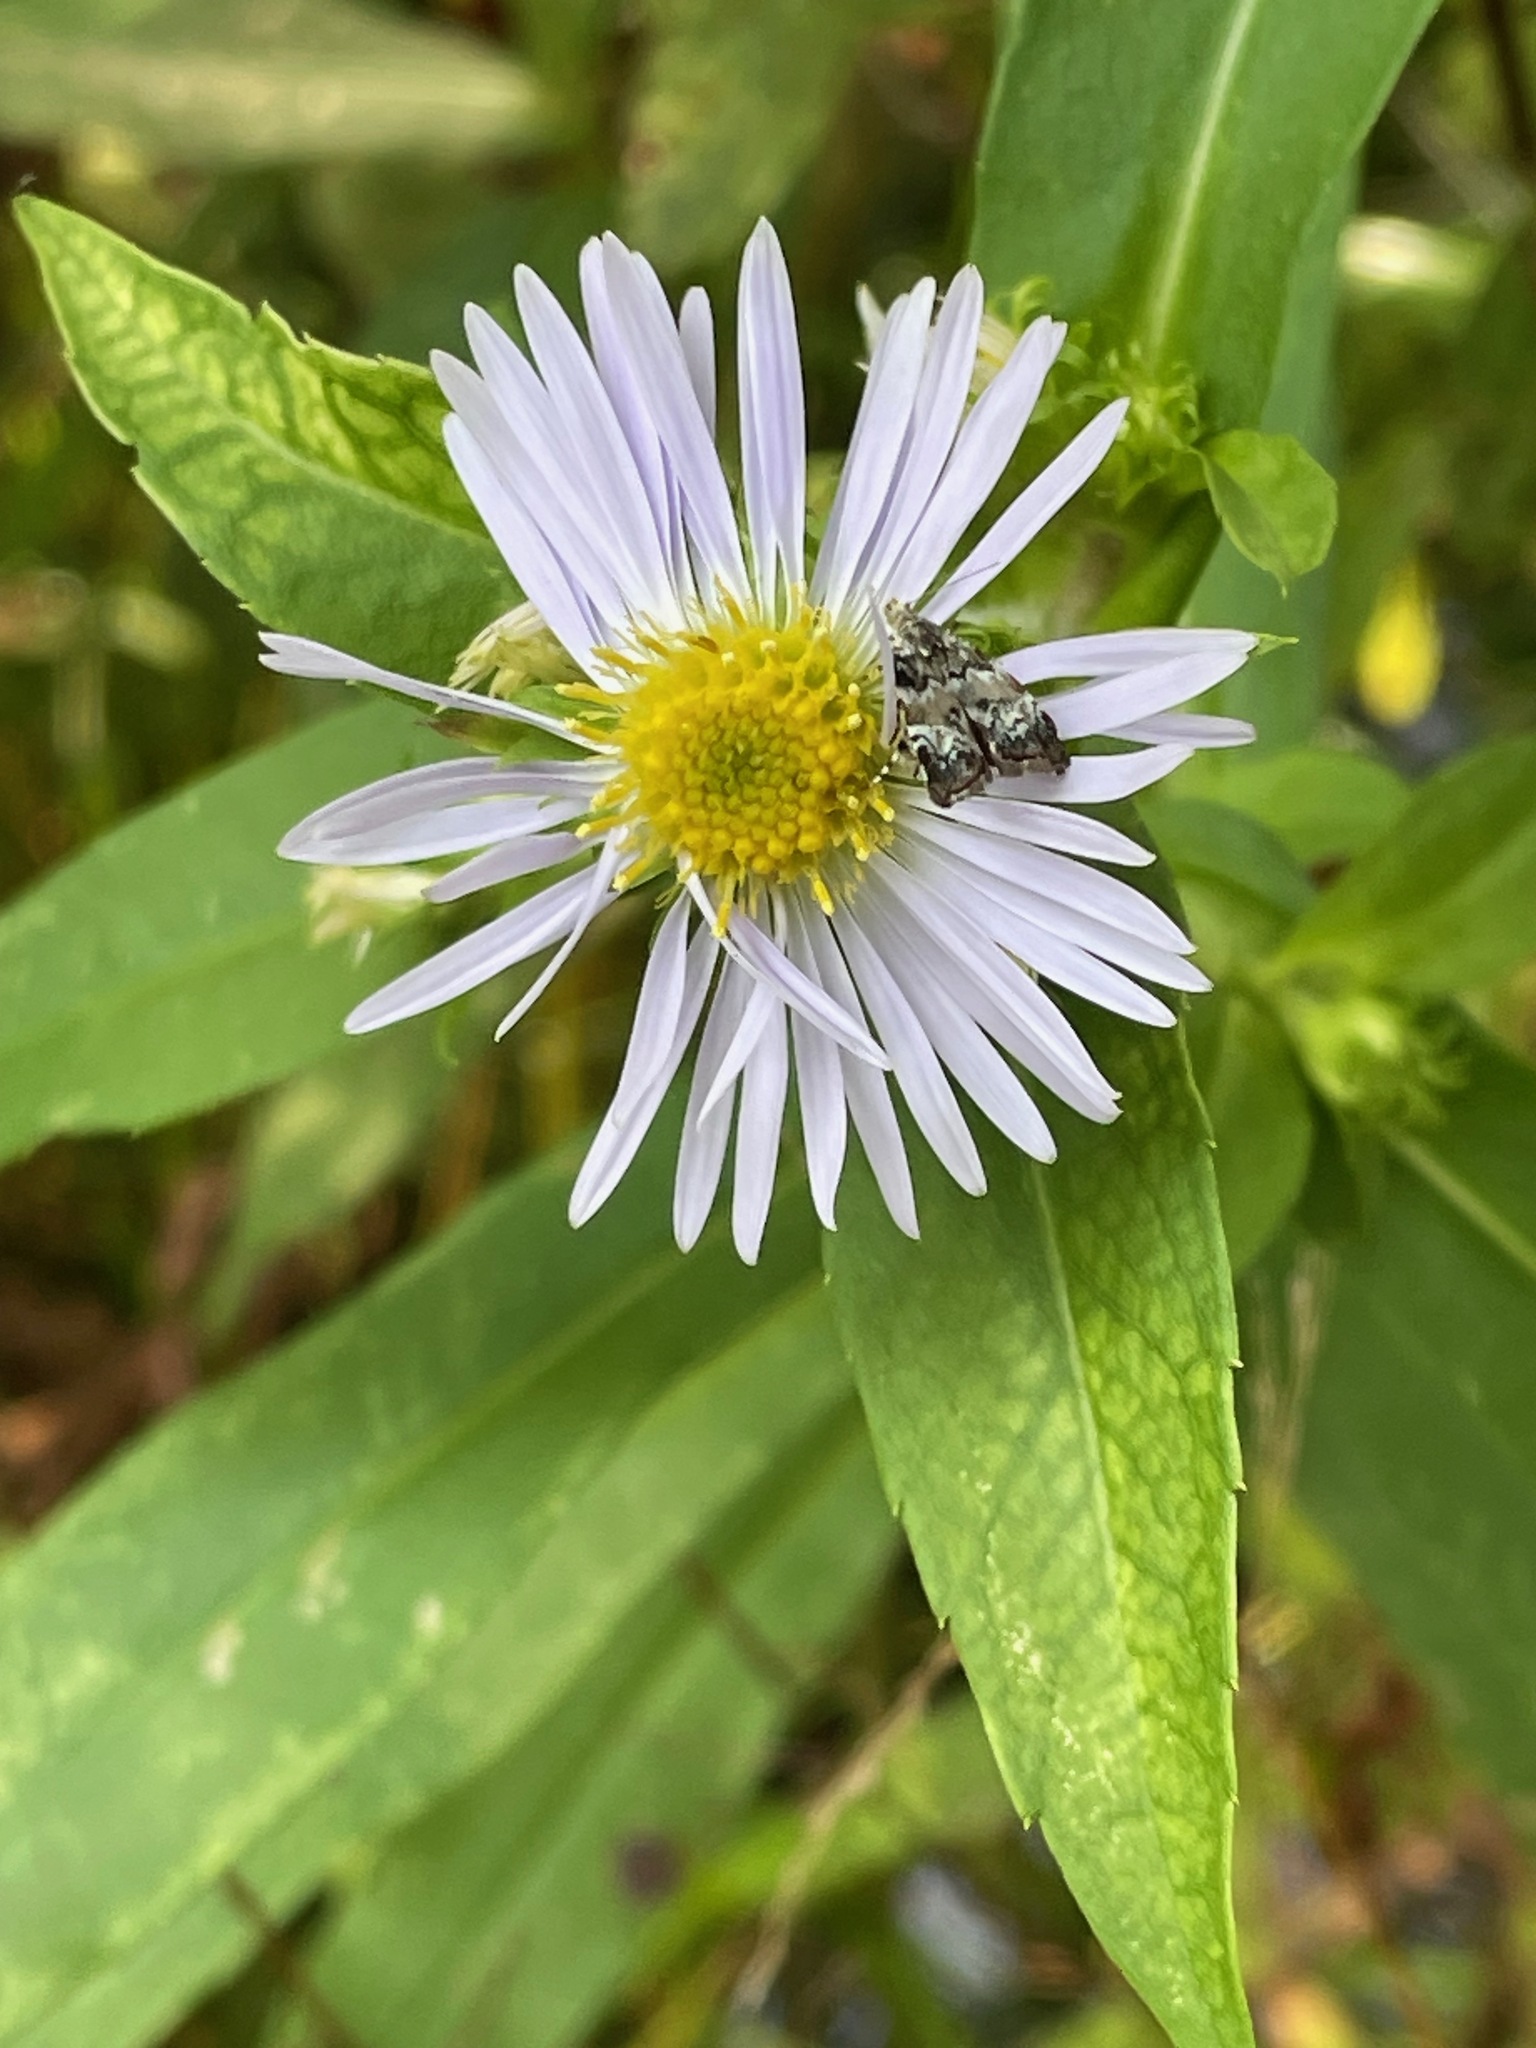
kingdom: Plantae
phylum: Tracheophyta
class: Magnoliopsida
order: Asterales
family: Asteraceae
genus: Symphyotrichum
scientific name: Symphyotrichum puniceum
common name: Bog aster
